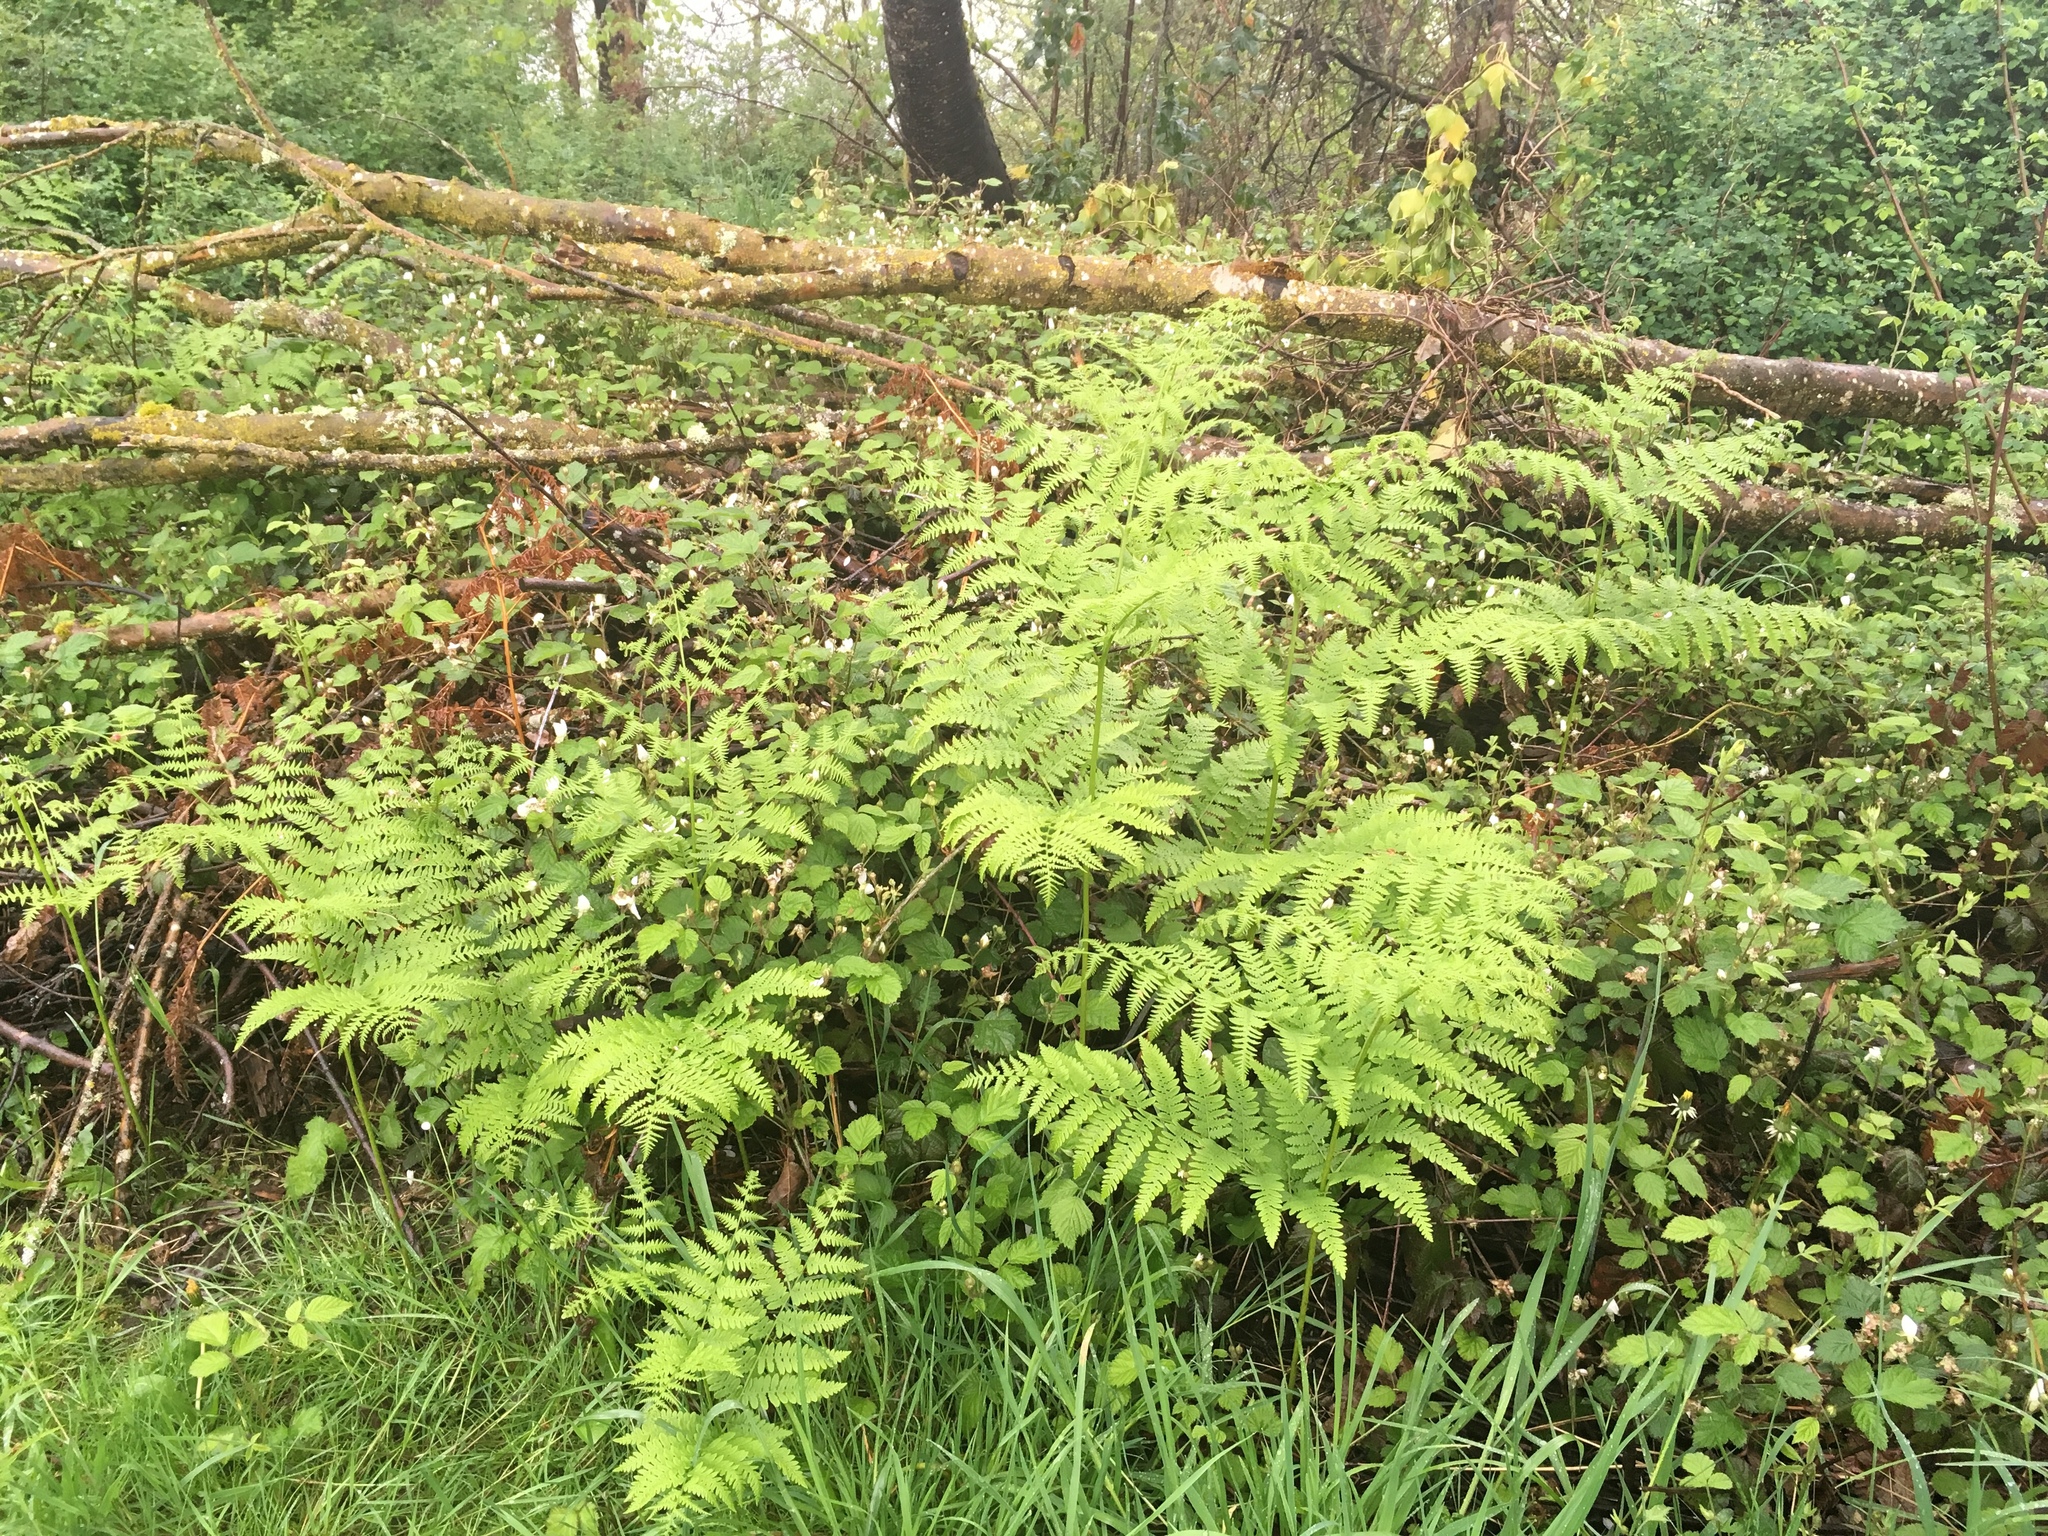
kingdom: Plantae
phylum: Tracheophyta
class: Polypodiopsida
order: Polypodiales
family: Dennstaedtiaceae
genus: Pteridium
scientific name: Pteridium aquilinum
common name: Bracken
